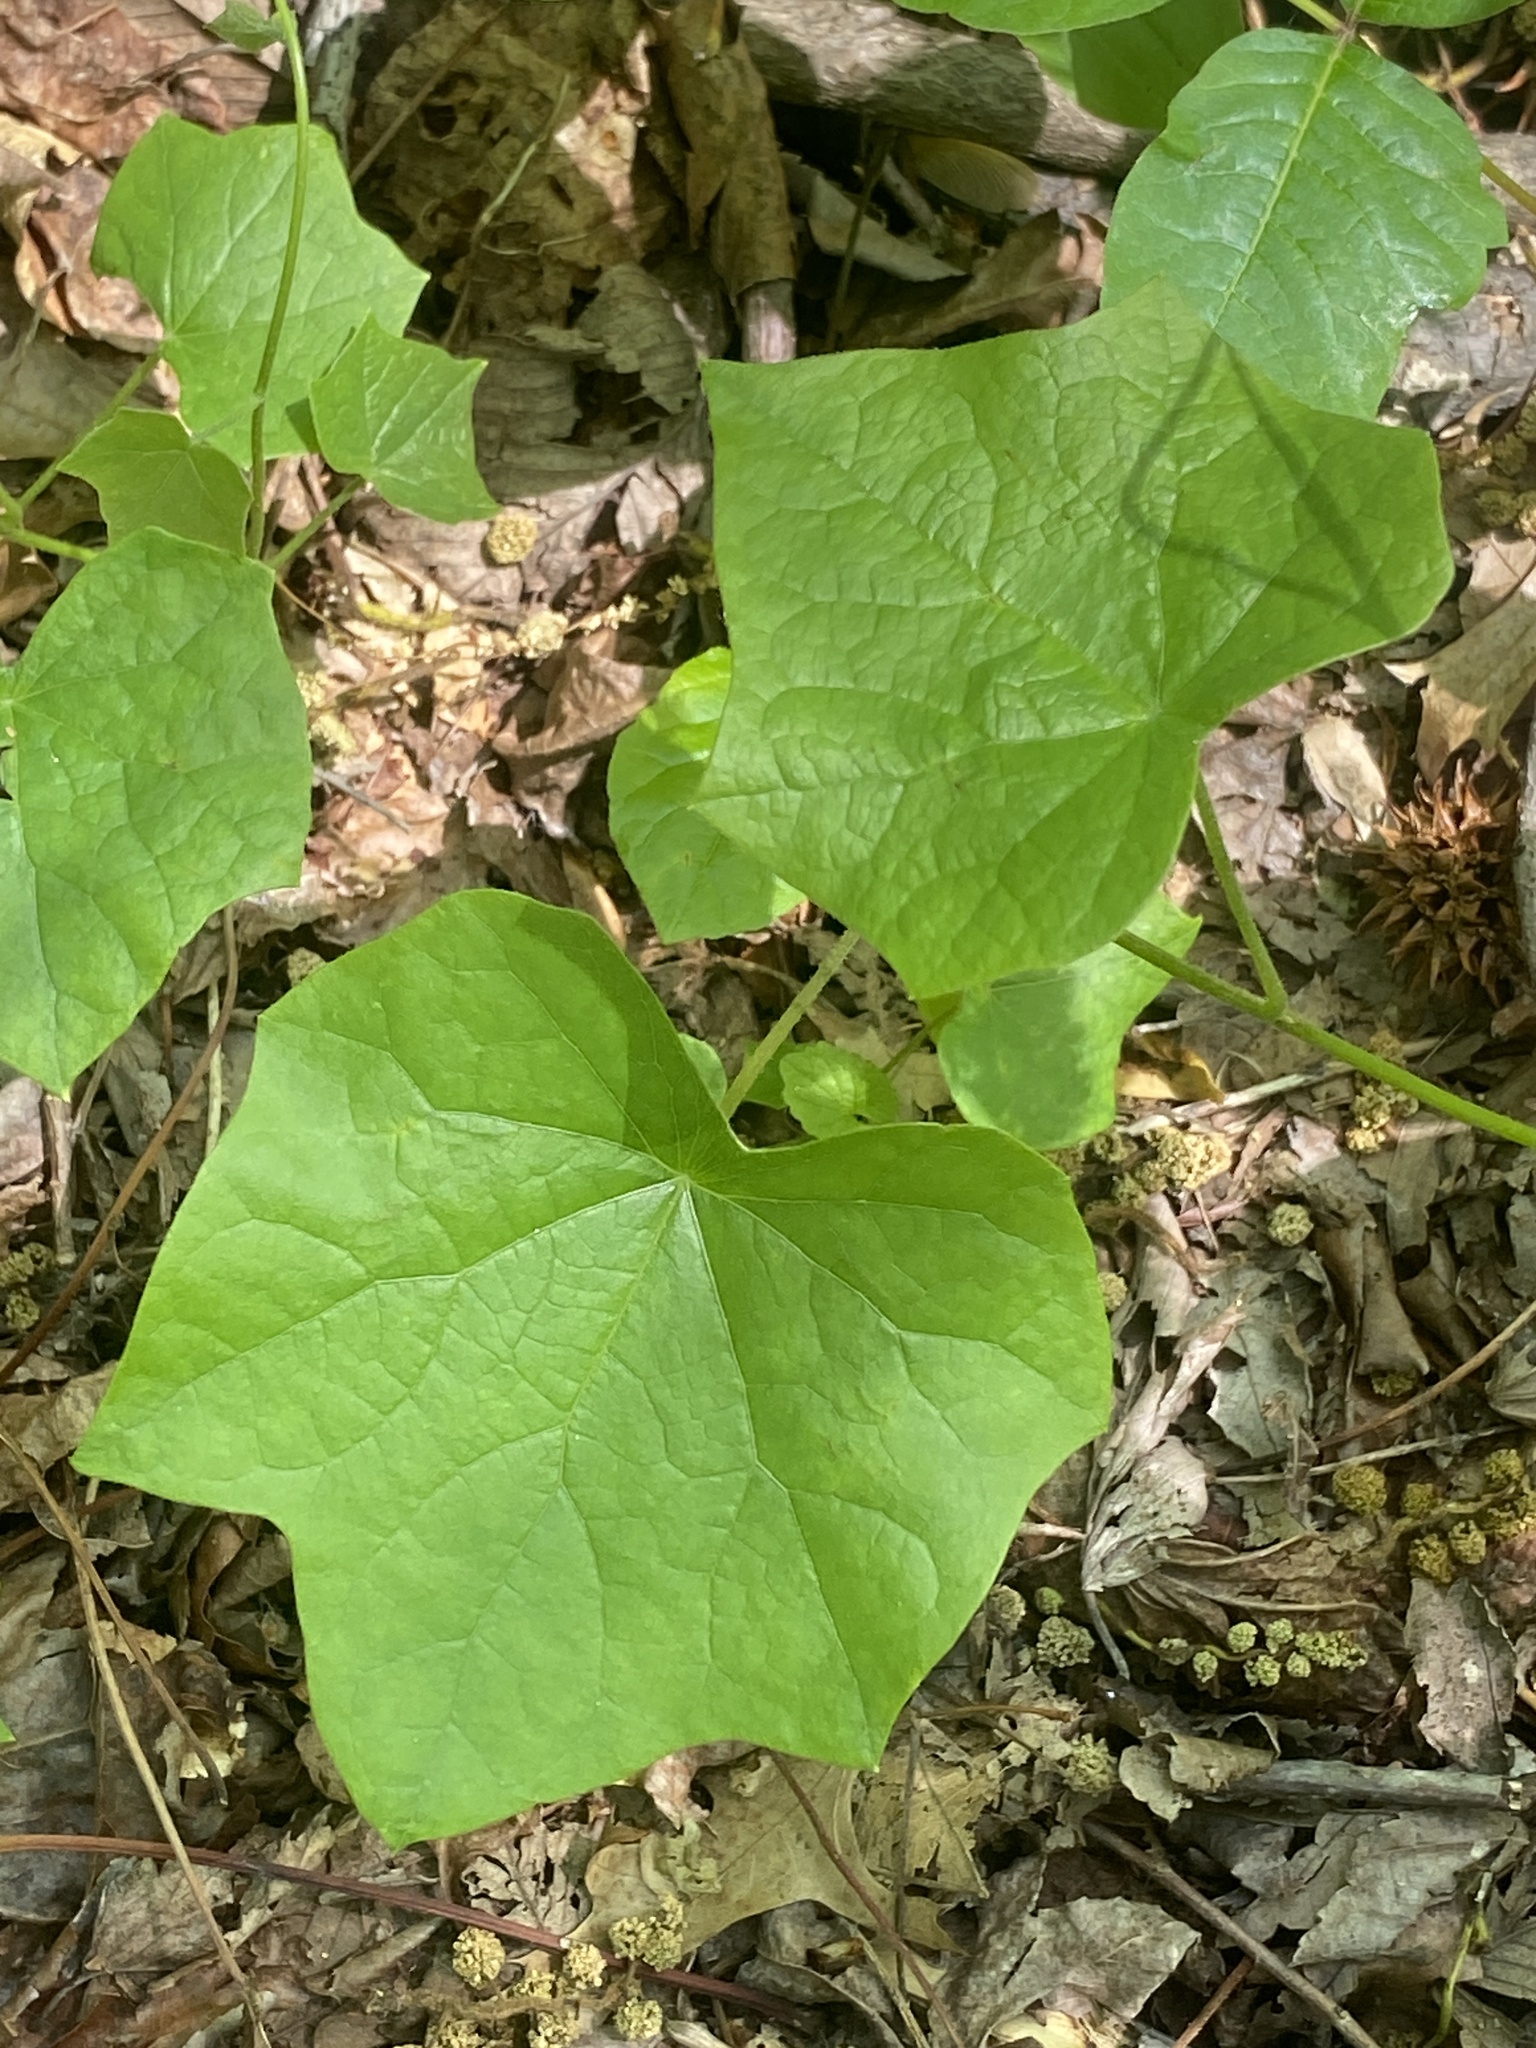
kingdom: Plantae
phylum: Tracheophyta
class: Magnoliopsida
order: Ranunculales
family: Menispermaceae
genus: Menispermum
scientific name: Menispermum canadense
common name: Moonseed
